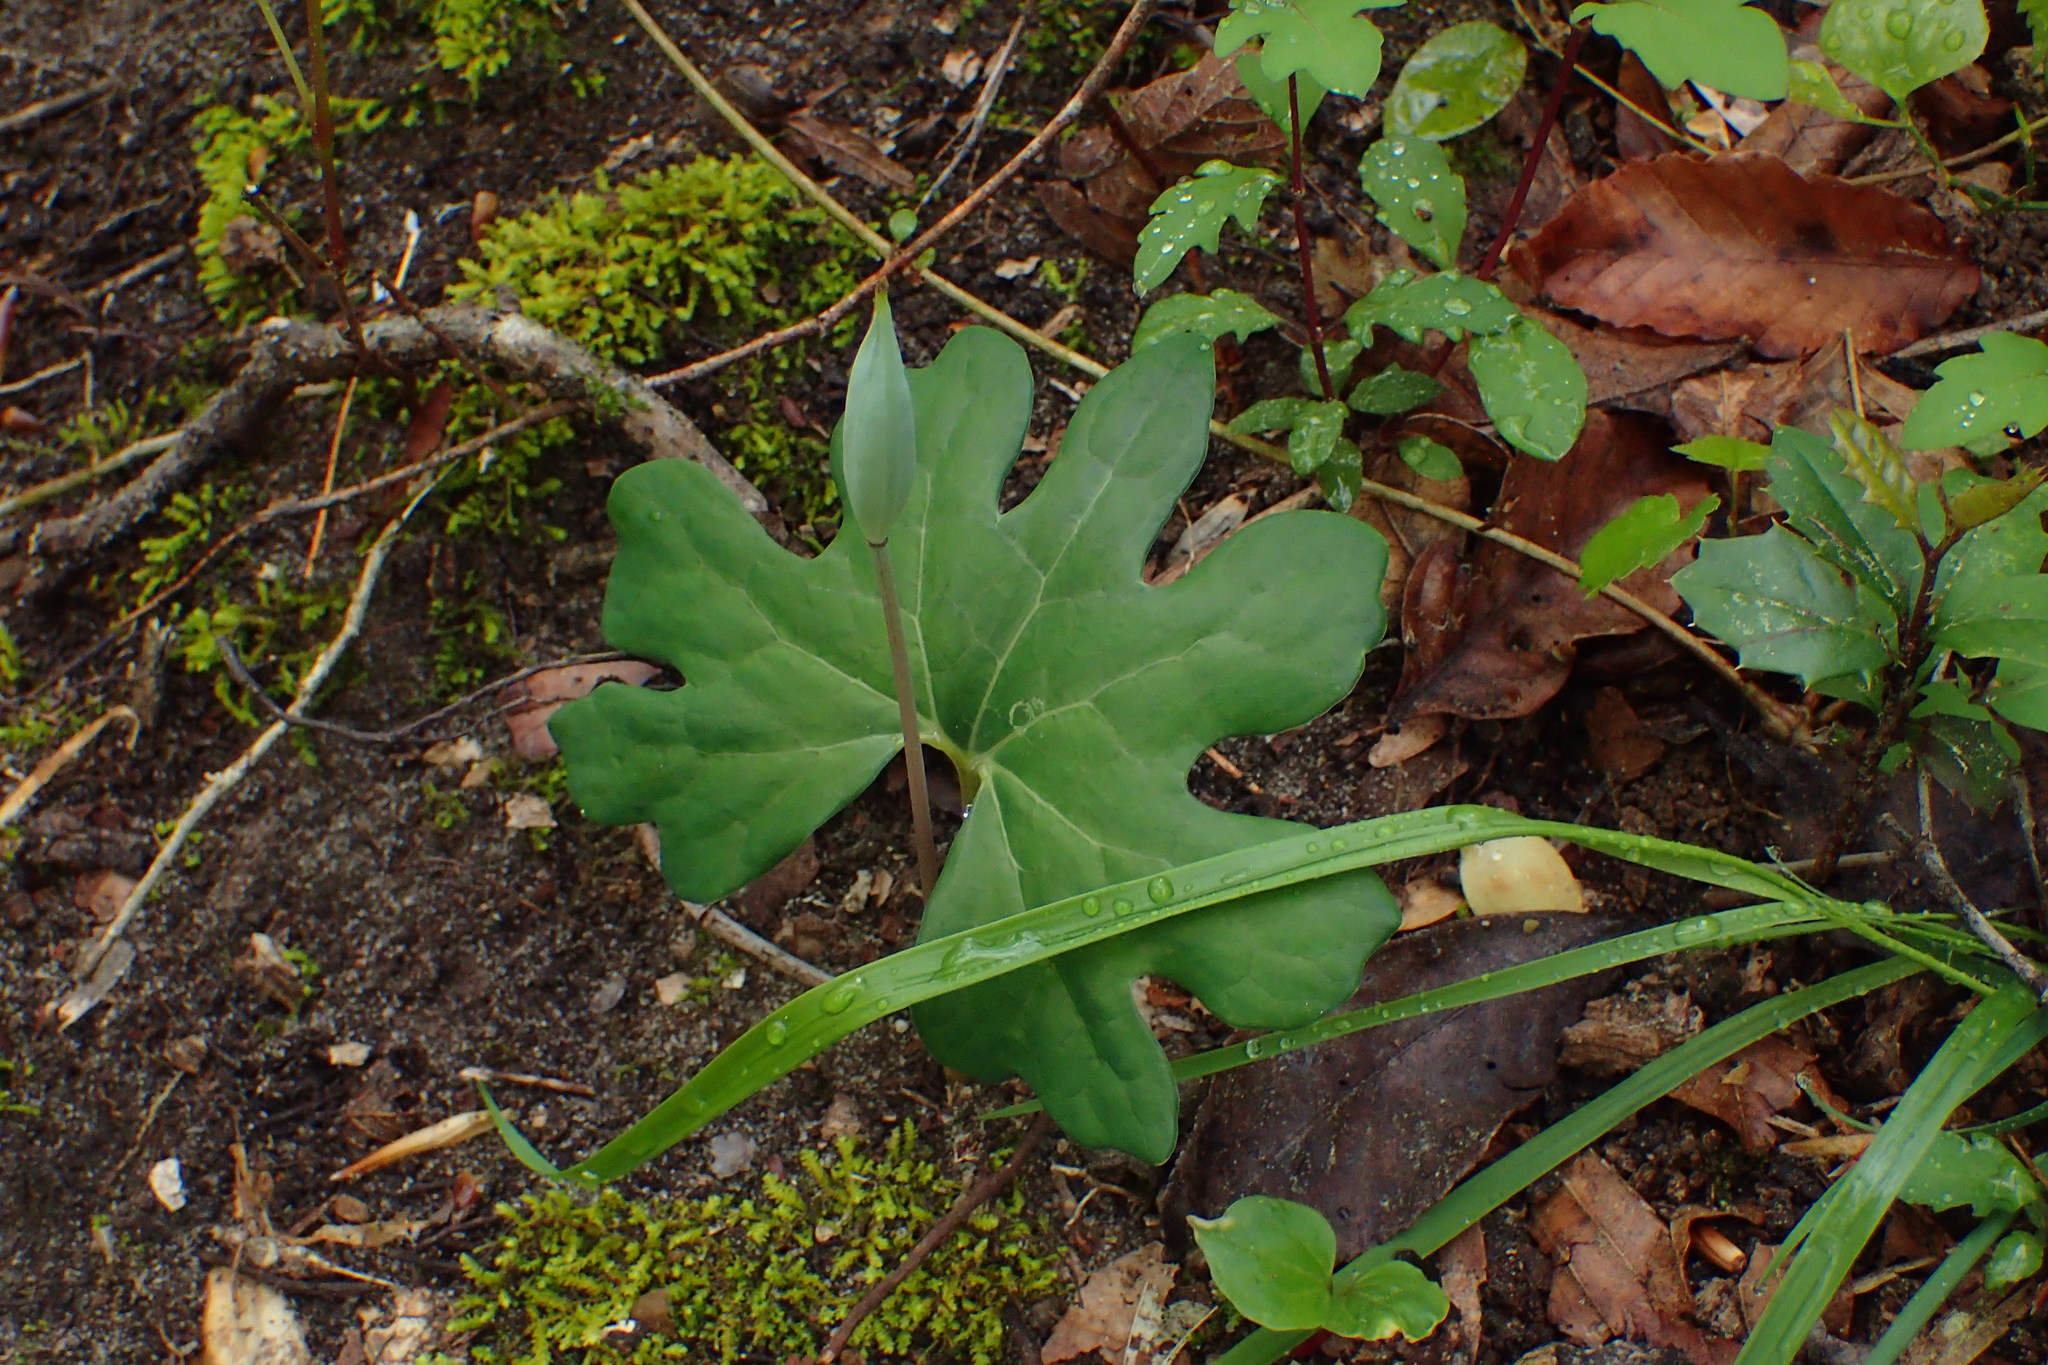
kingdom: Plantae
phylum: Tracheophyta
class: Magnoliopsida
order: Ranunculales
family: Papaveraceae
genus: Sanguinaria
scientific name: Sanguinaria canadensis
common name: Bloodroot
